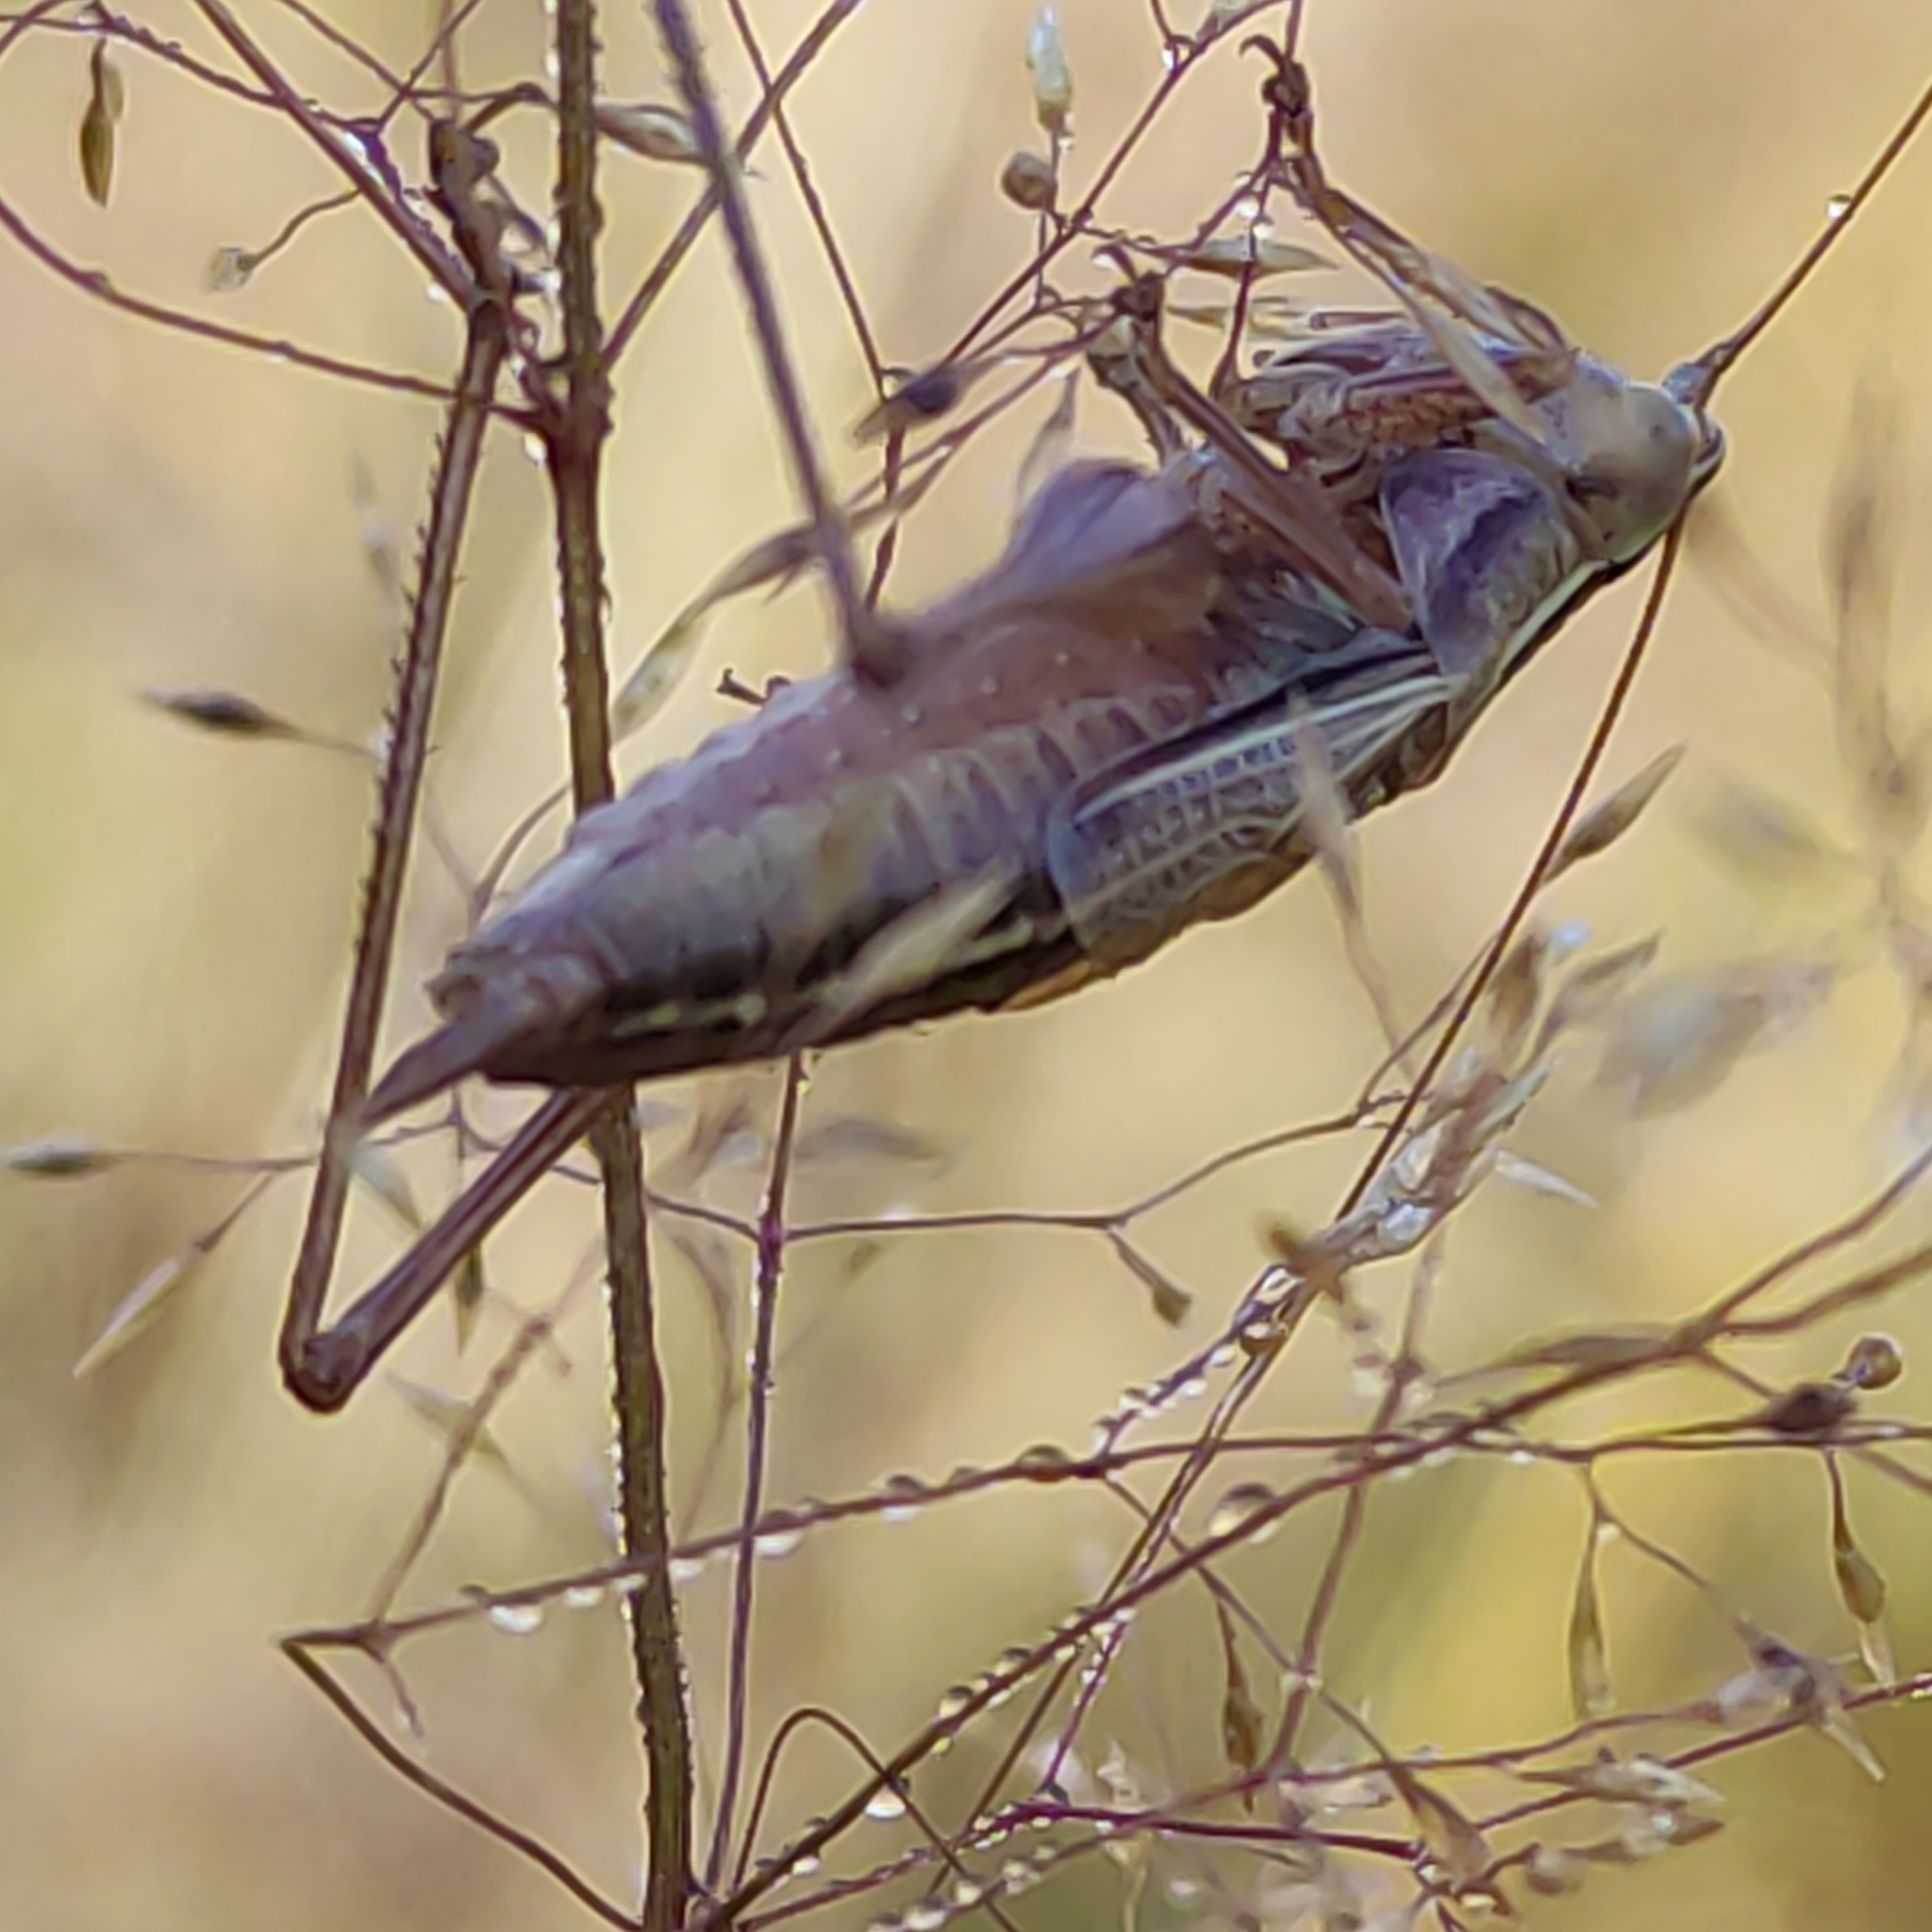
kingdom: Animalia
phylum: Arthropoda
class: Insecta
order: Orthoptera
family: Tettigoniidae
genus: Conocephalus
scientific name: Conocephalus bilineatus
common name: Small meadow katydid
